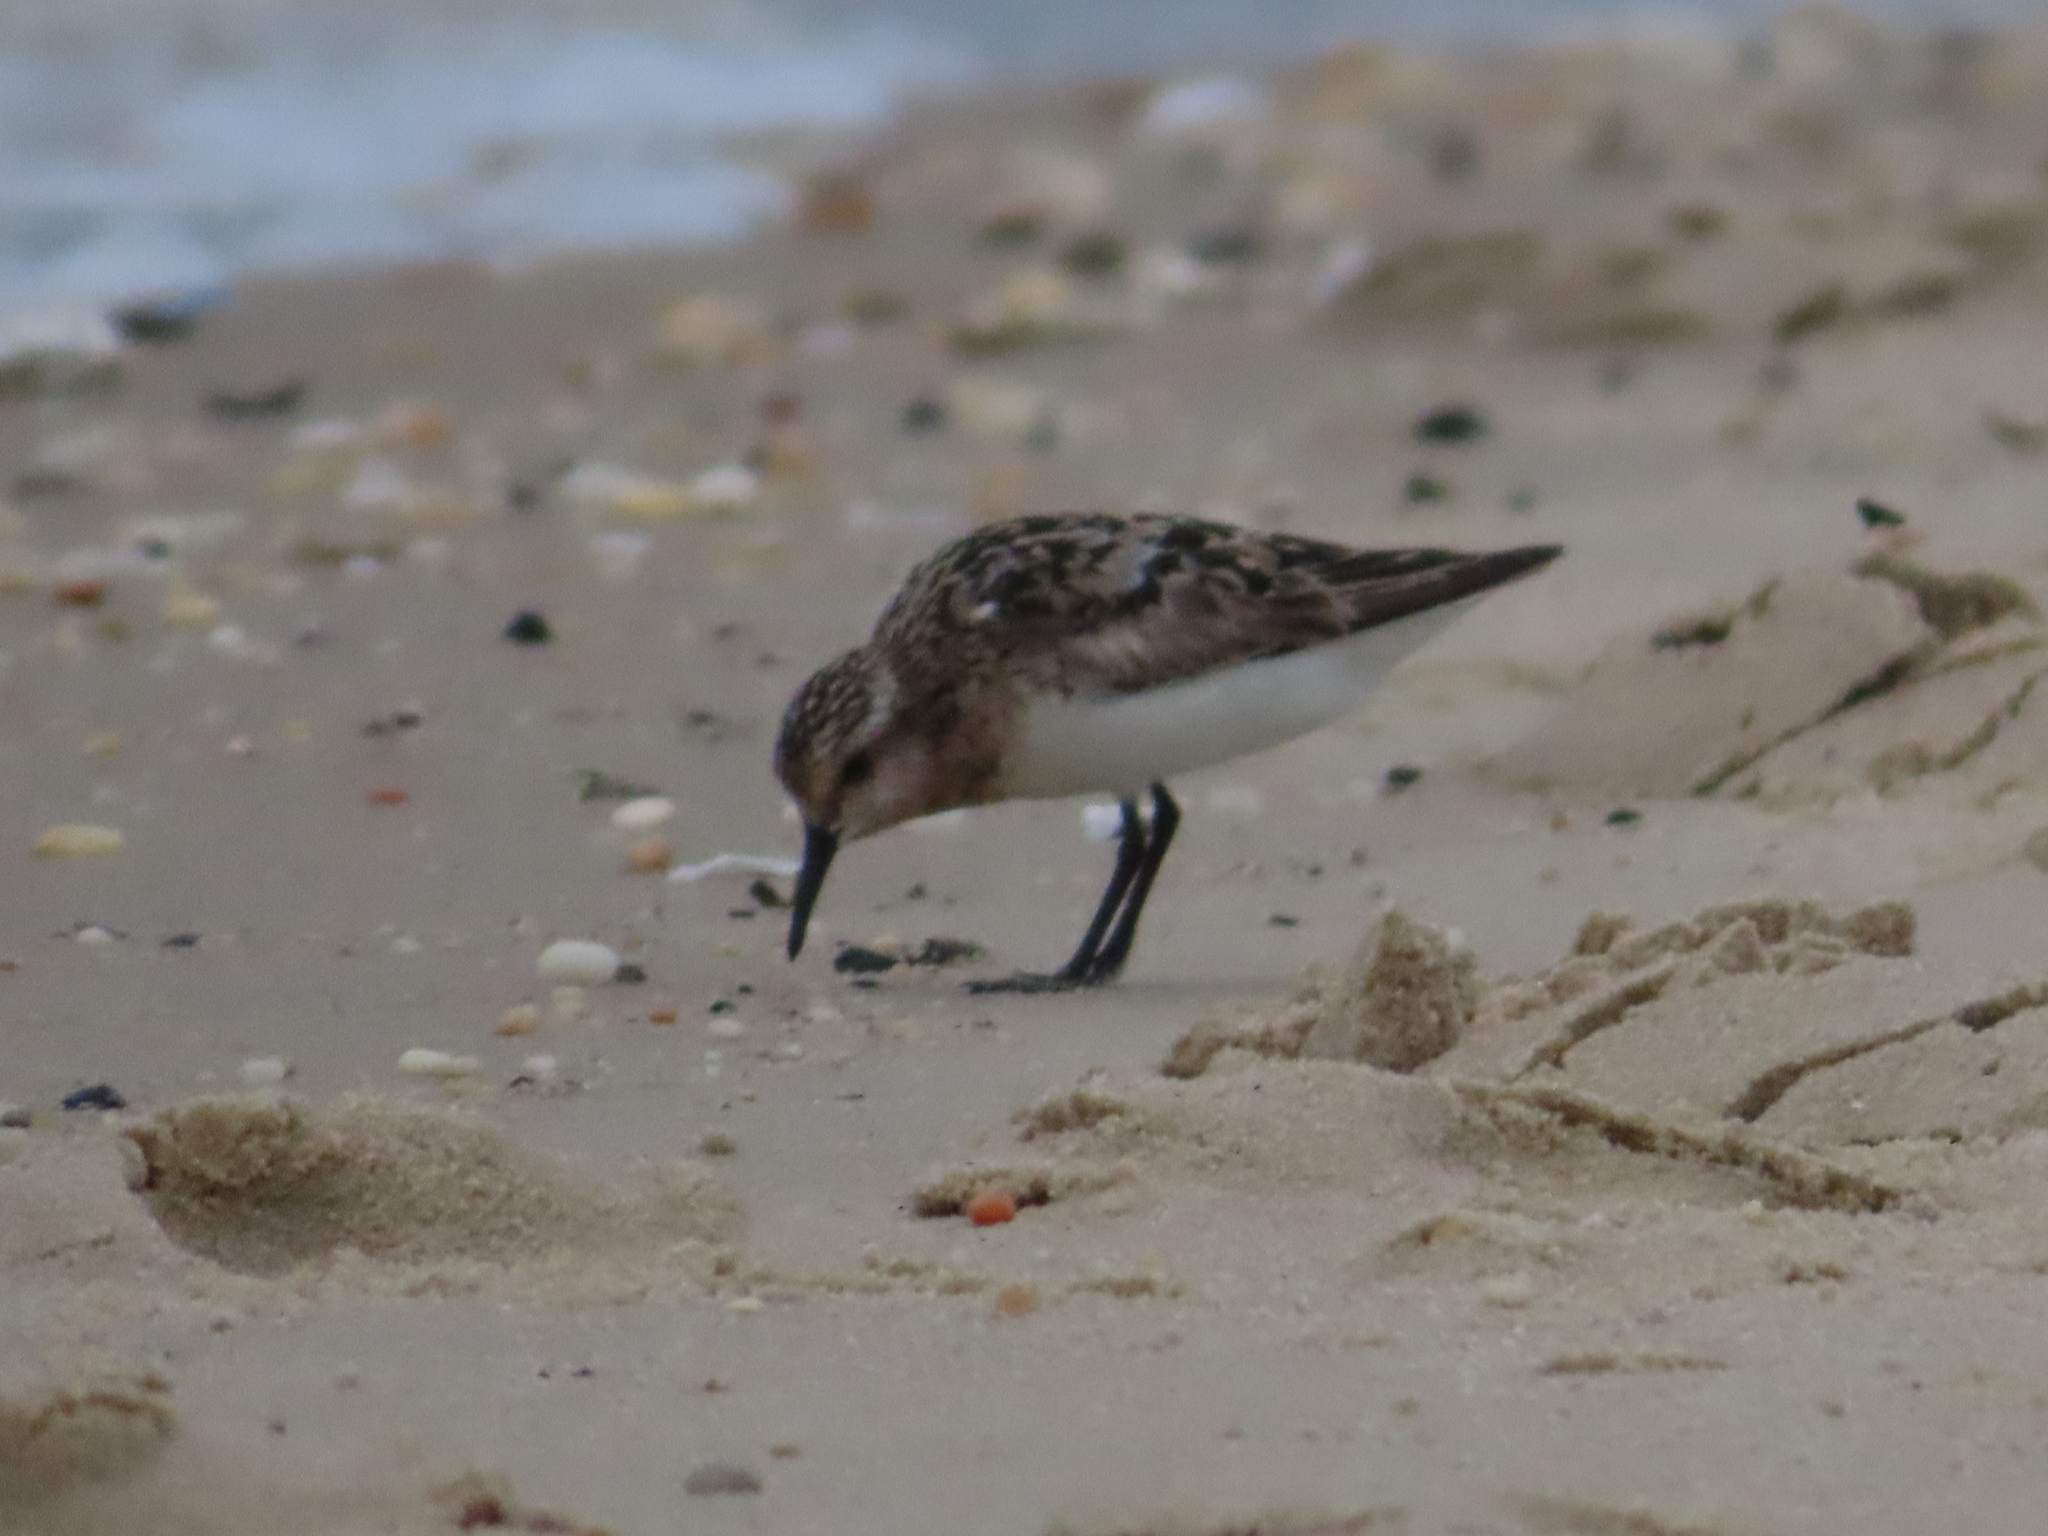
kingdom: Animalia
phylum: Chordata
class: Aves
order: Charadriiformes
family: Scolopacidae
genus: Calidris
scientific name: Calidris alba
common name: Sanderling
